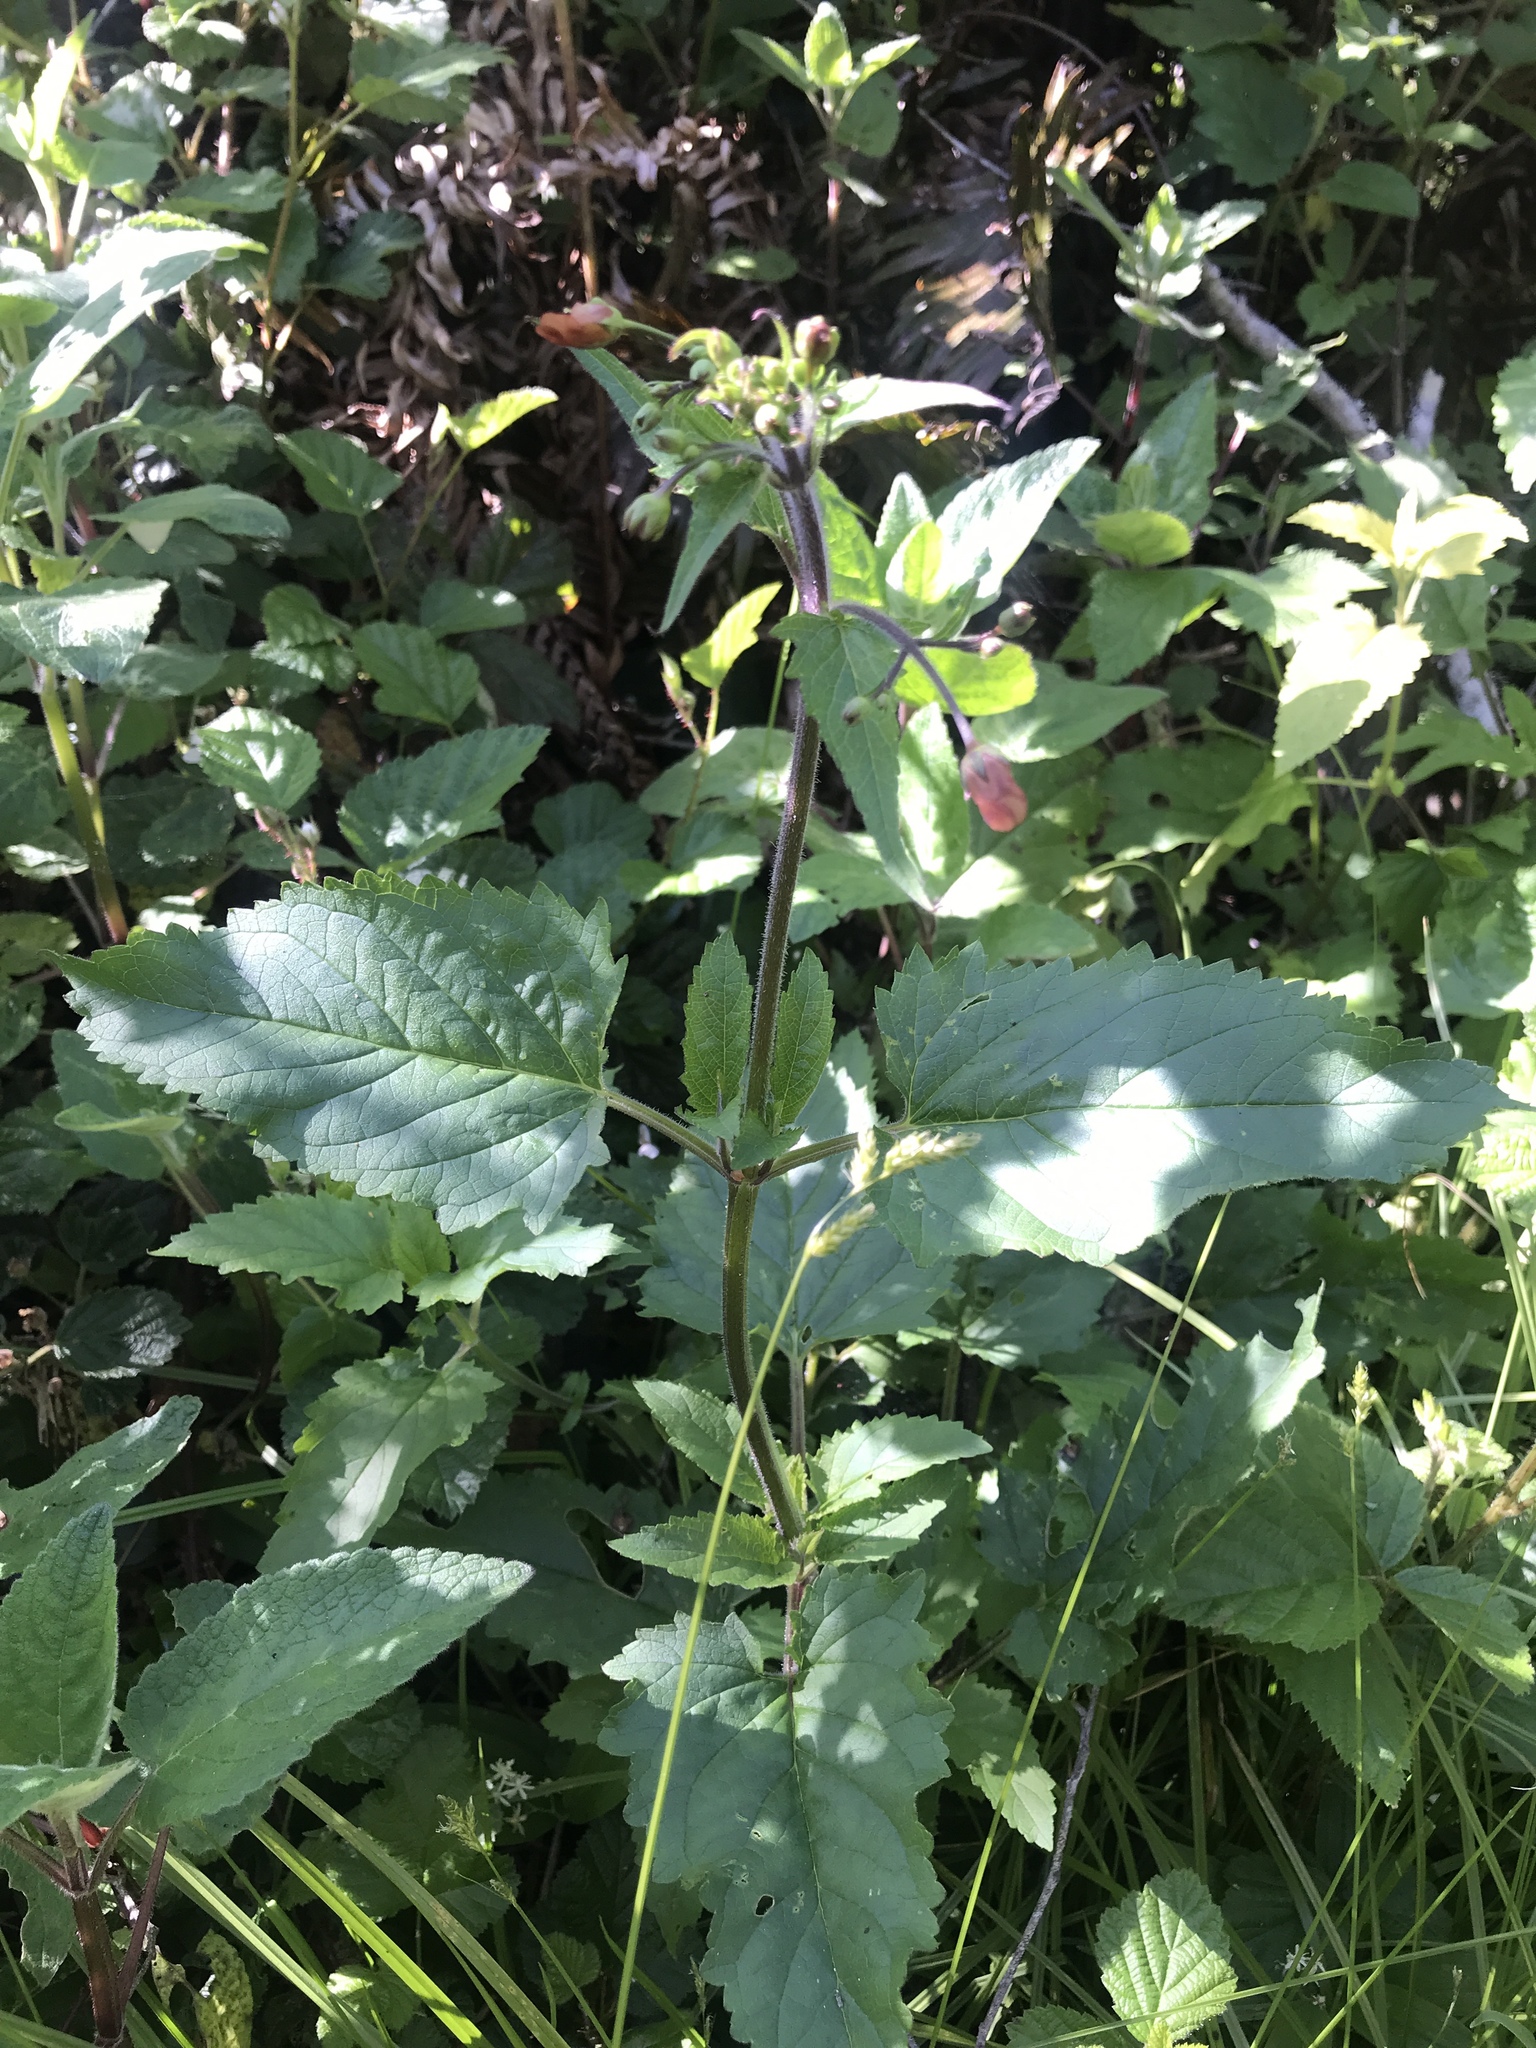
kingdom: Plantae
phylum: Tracheophyta
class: Magnoliopsida
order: Lamiales
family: Scrophulariaceae
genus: Scrophularia
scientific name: Scrophularia californica
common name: California figwort
